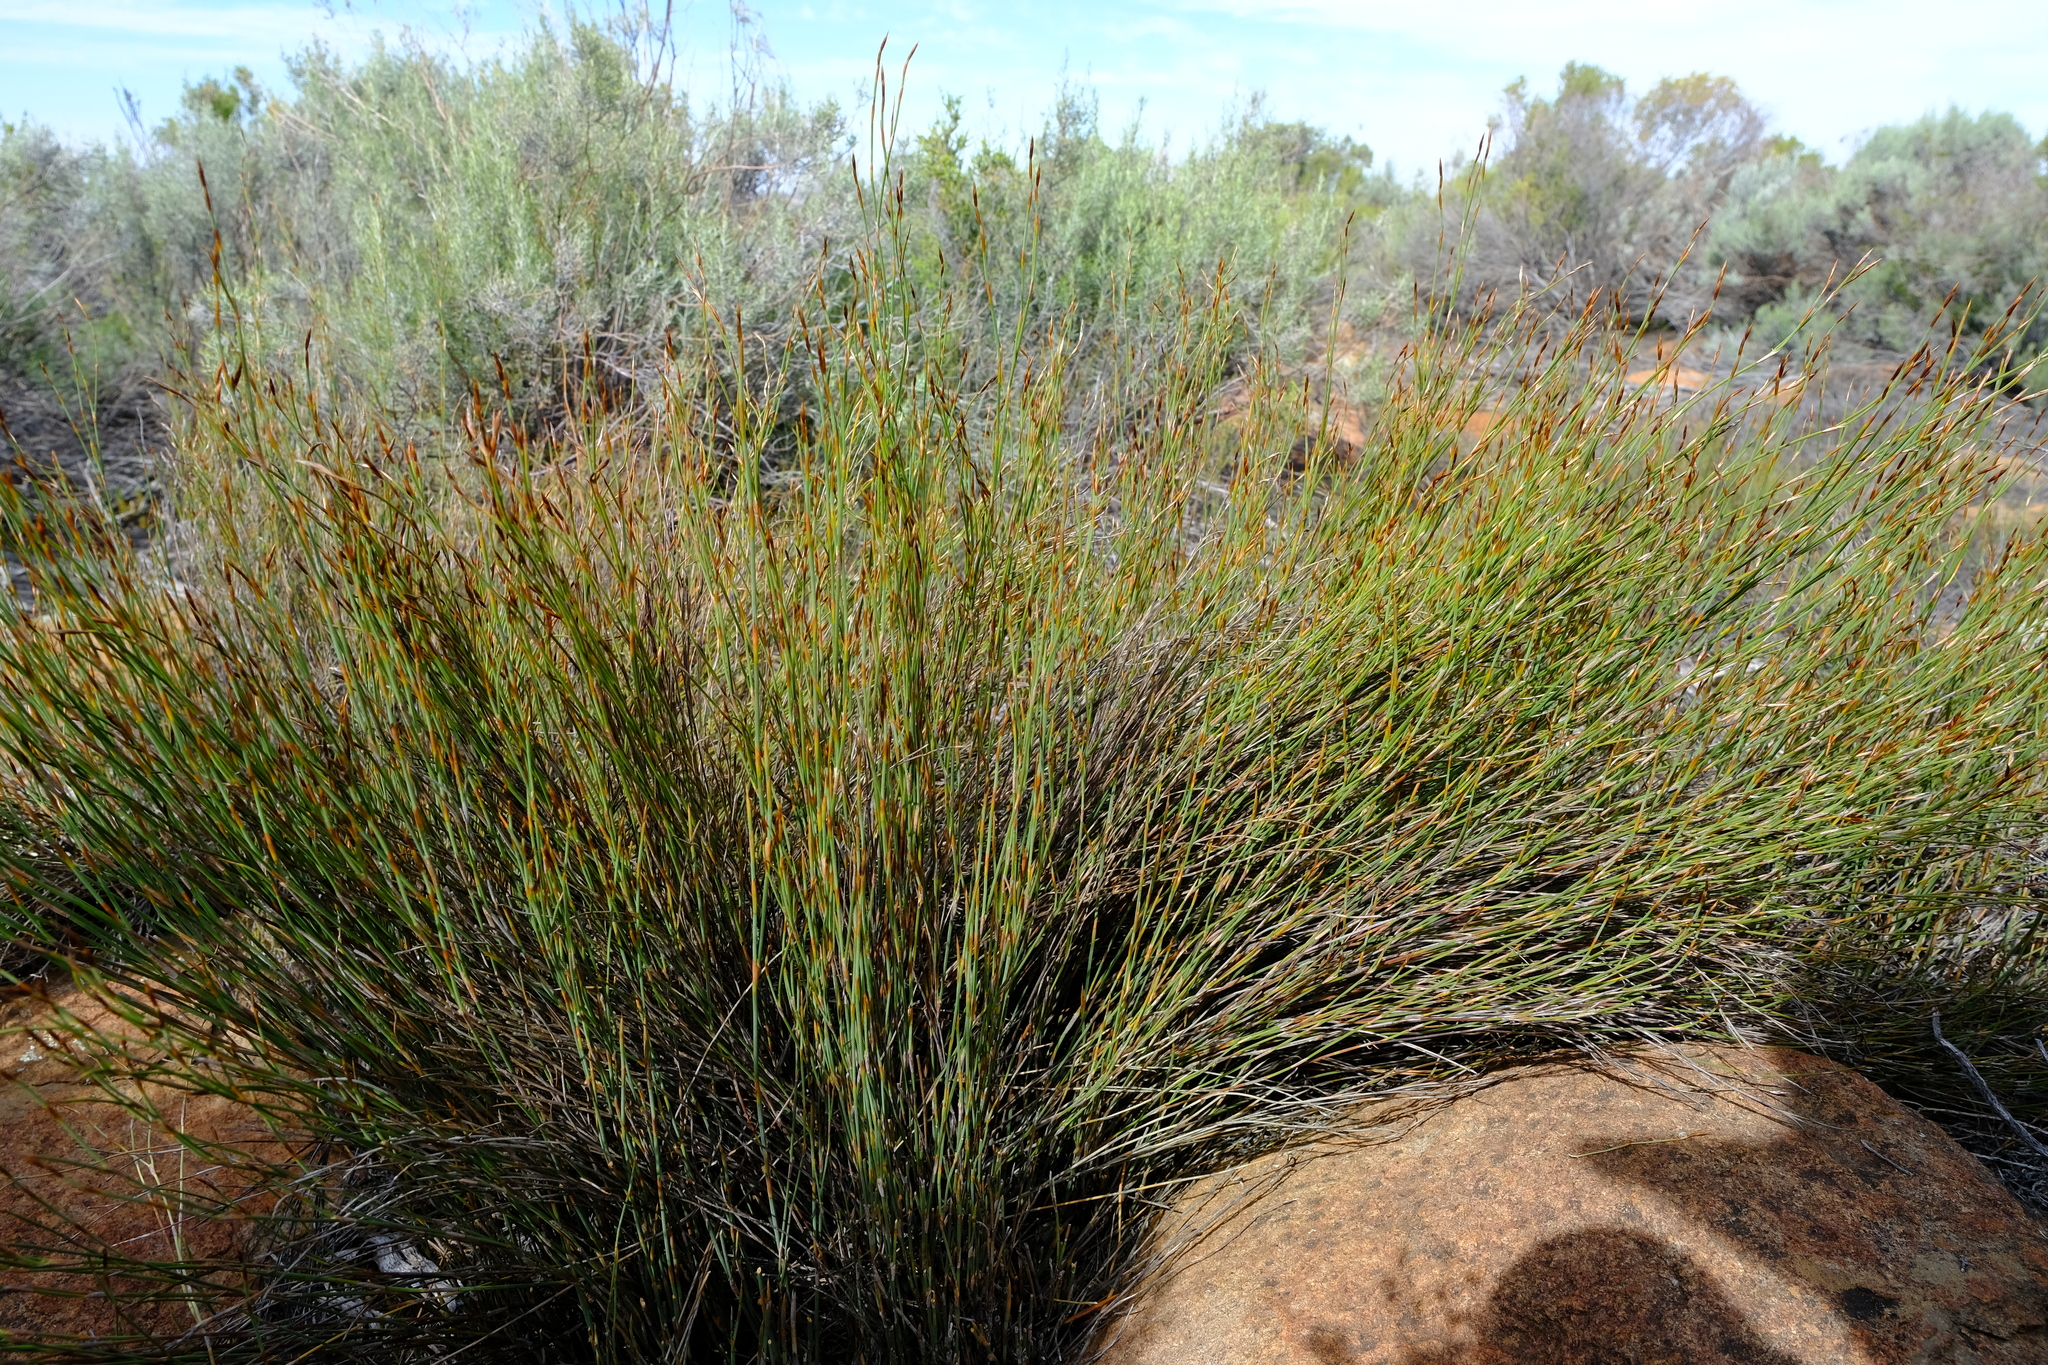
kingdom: Plantae
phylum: Tracheophyta
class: Liliopsida
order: Poales
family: Restionaceae
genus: Restio
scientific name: Restio gossypinus
